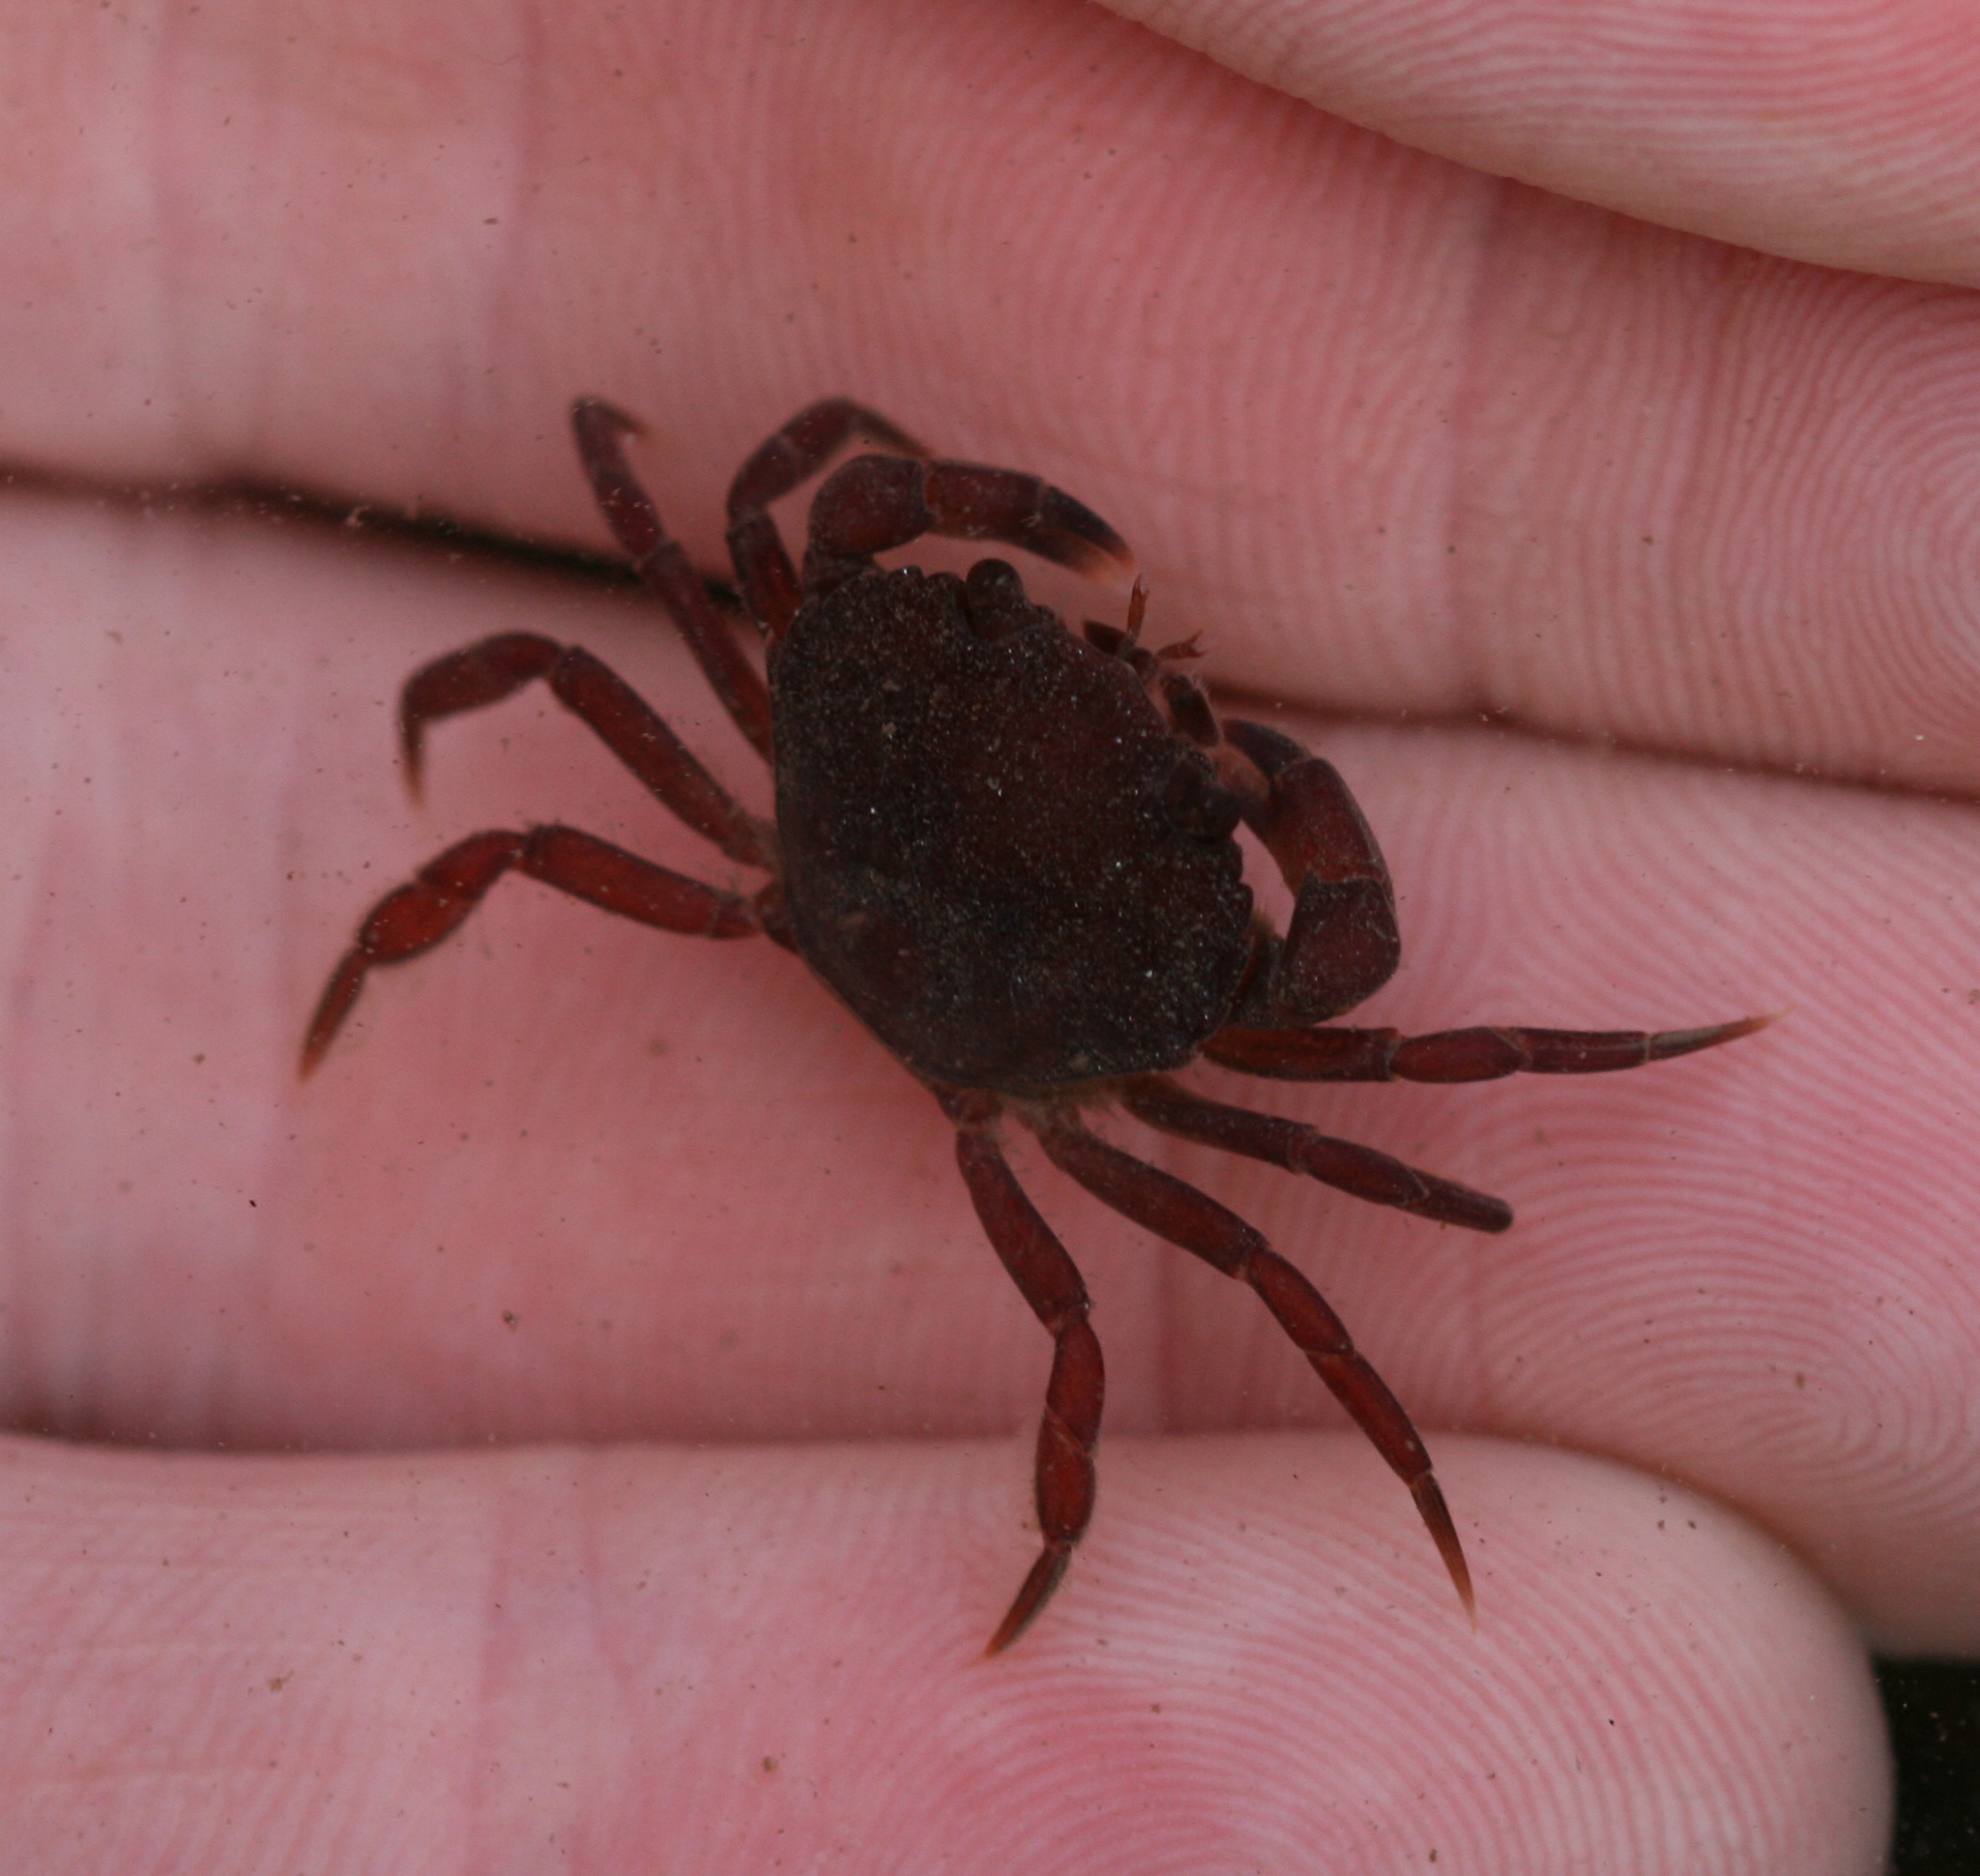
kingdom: Animalia
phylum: Arthropoda
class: Malacostraca
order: Decapoda
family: Carcinidae
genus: Carcinus
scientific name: Carcinus maenas
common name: European green crab
